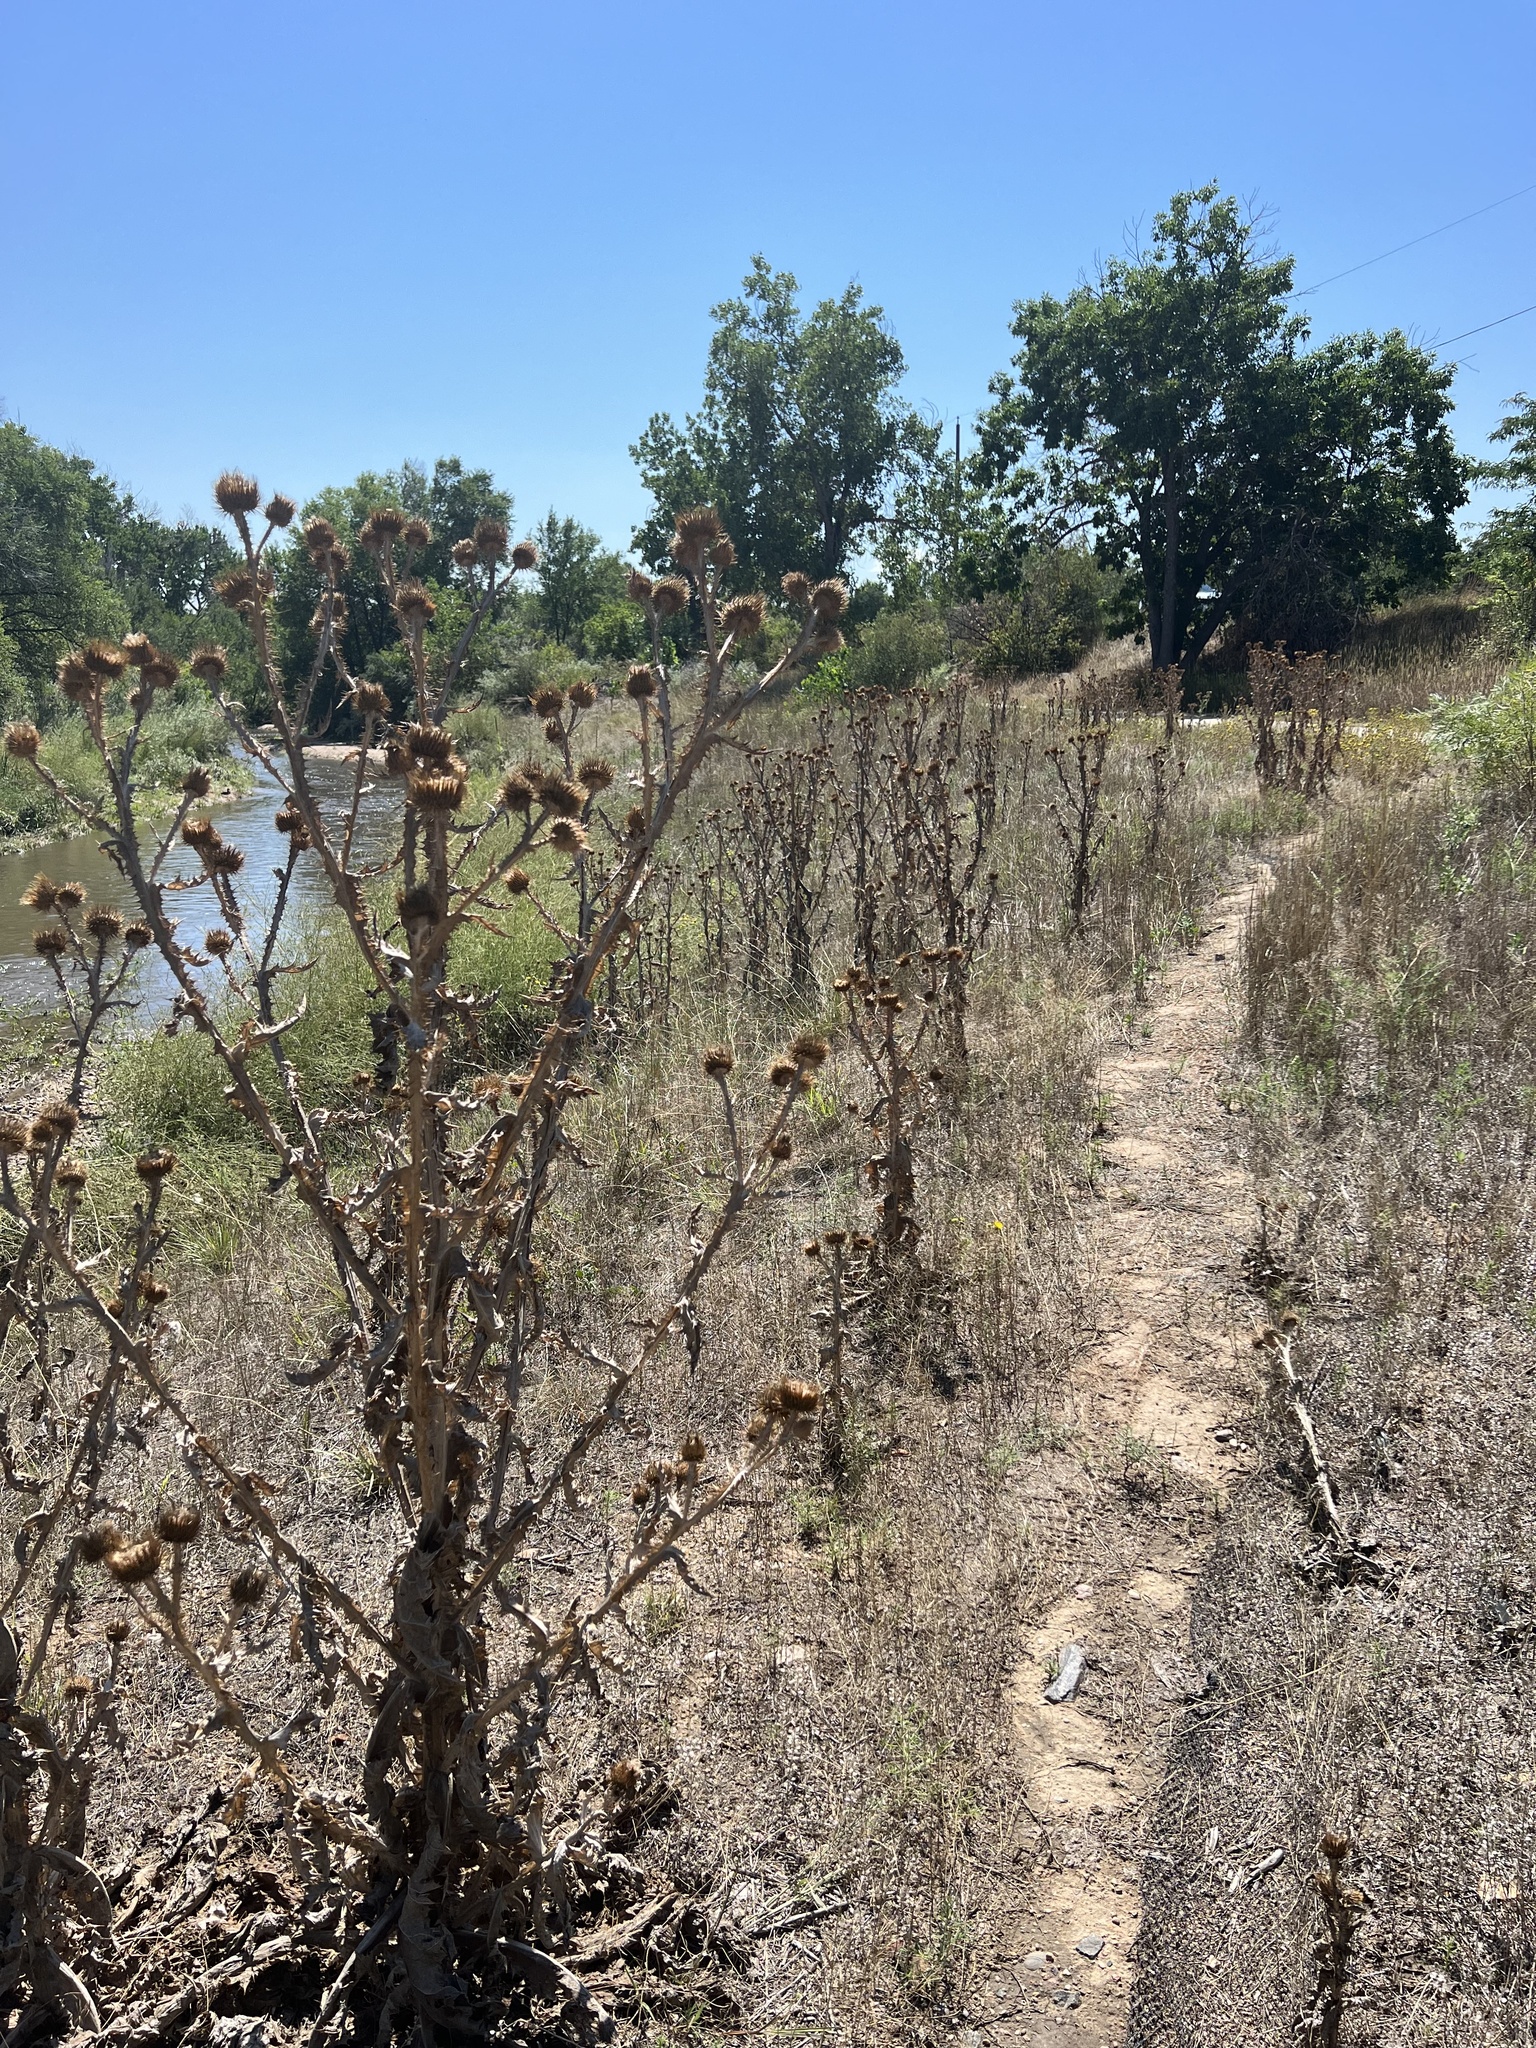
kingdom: Plantae
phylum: Tracheophyta
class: Magnoliopsida
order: Asterales
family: Asteraceae
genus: Onopordum
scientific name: Onopordum acanthium
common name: Scotch thistle
